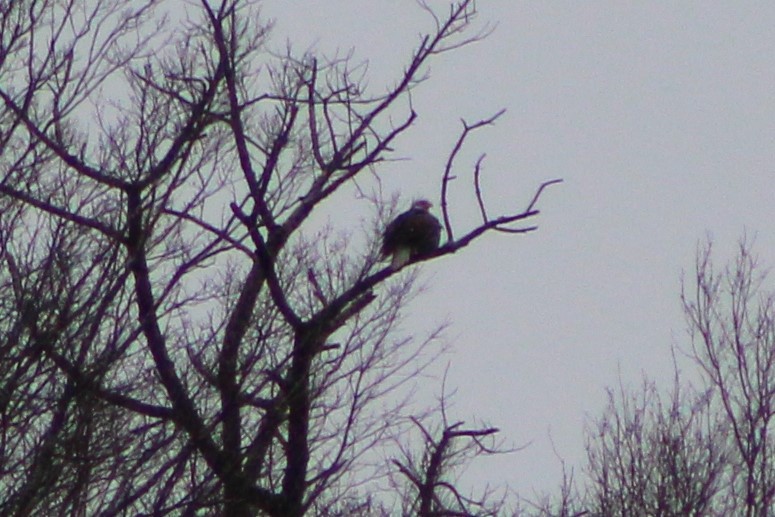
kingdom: Animalia
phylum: Chordata
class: Aves
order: Accipitriformes
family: Accipitridae
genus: Haliaeetus
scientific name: Haliaeetus leucocephalus
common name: Bald eagle
